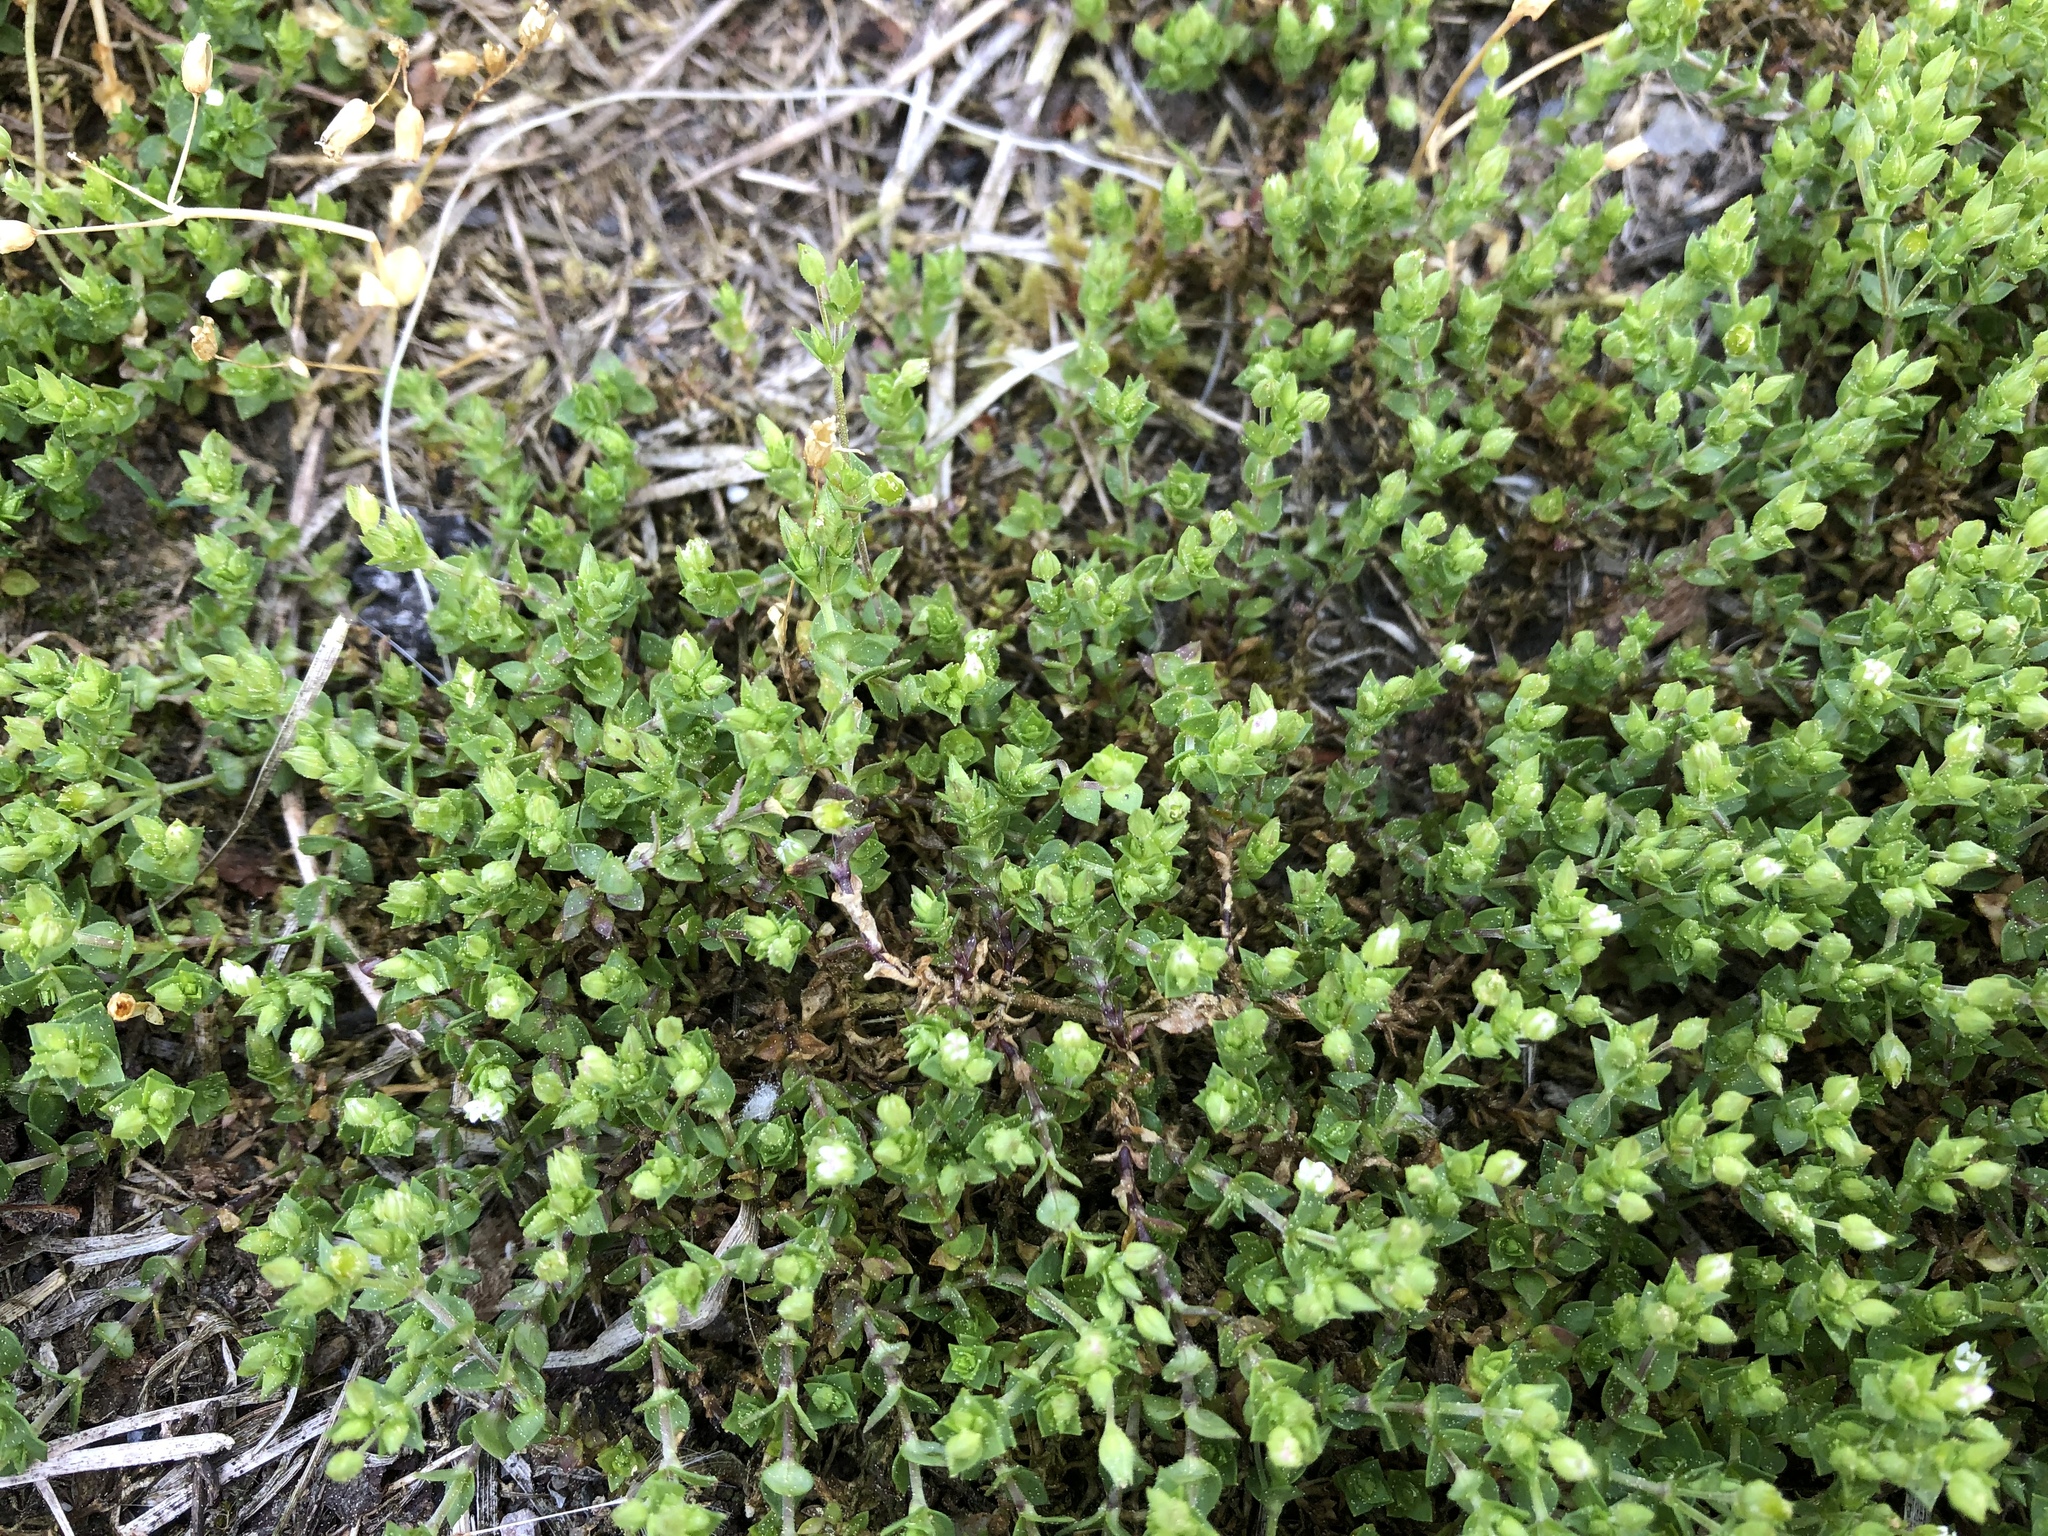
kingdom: Plantae
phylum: Tracheophyta
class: Magnoliopsida
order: Caryophyllales
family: Caryophyllaceae
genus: Arenaria
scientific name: Arenaria serpyllifolia
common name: Thyme-leaved sandwort
